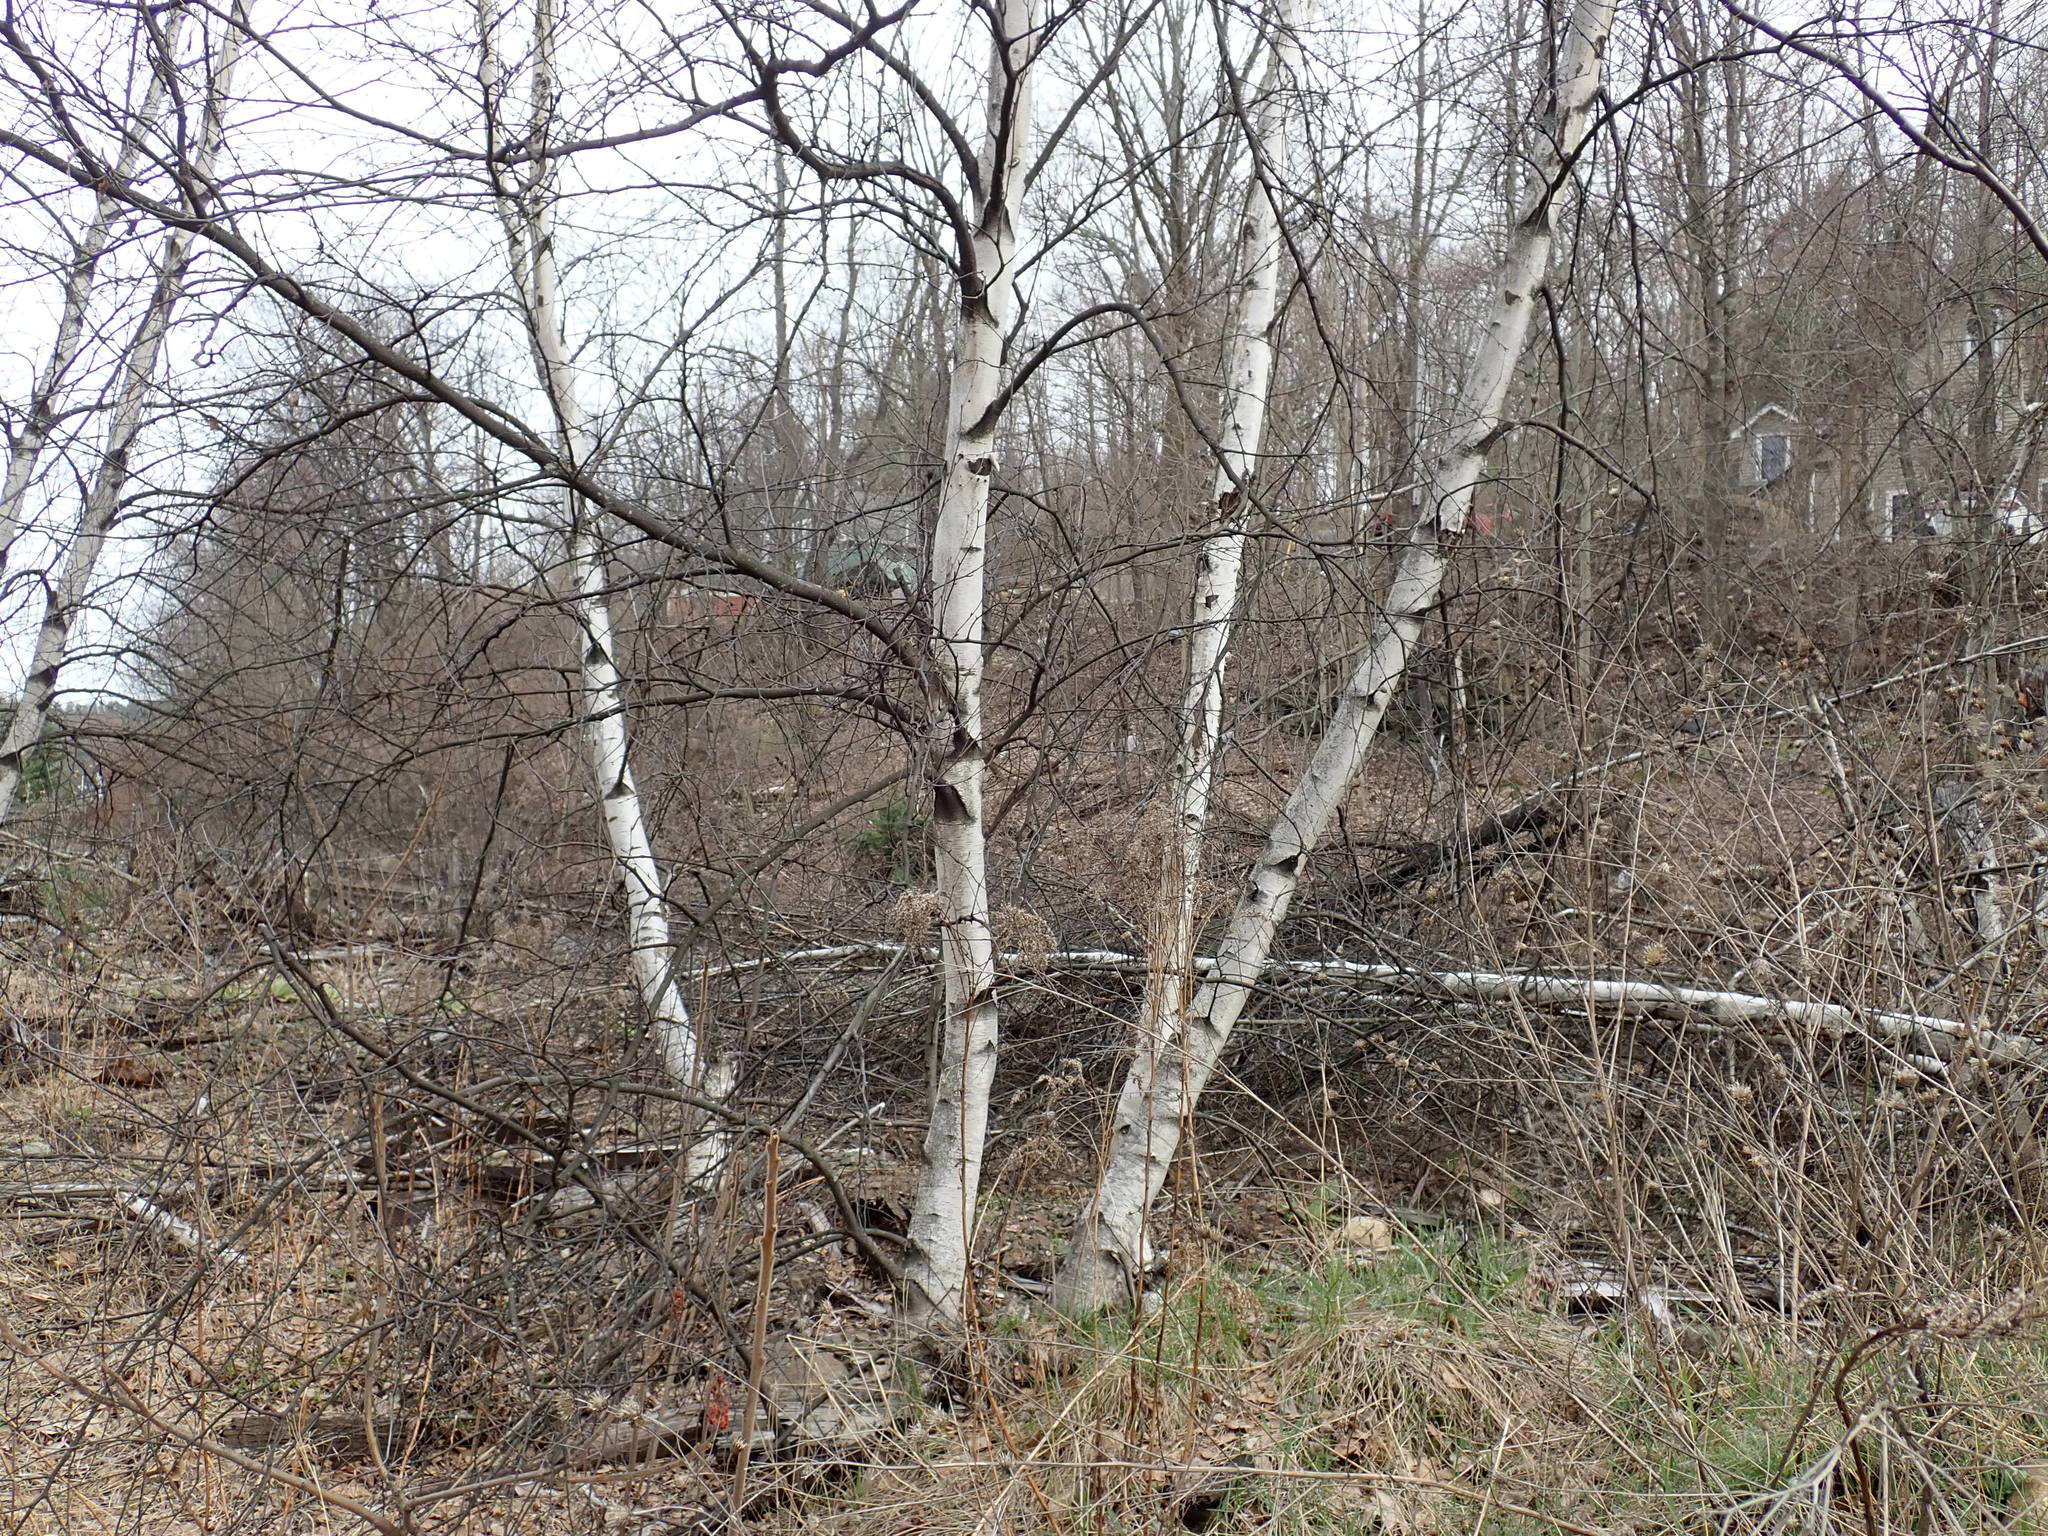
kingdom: Plantae
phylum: Tracheophyta
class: Magnoliopsida
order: Fagales
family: Betulaceae
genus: Betula
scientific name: Betula populifolia
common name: Fire birch
